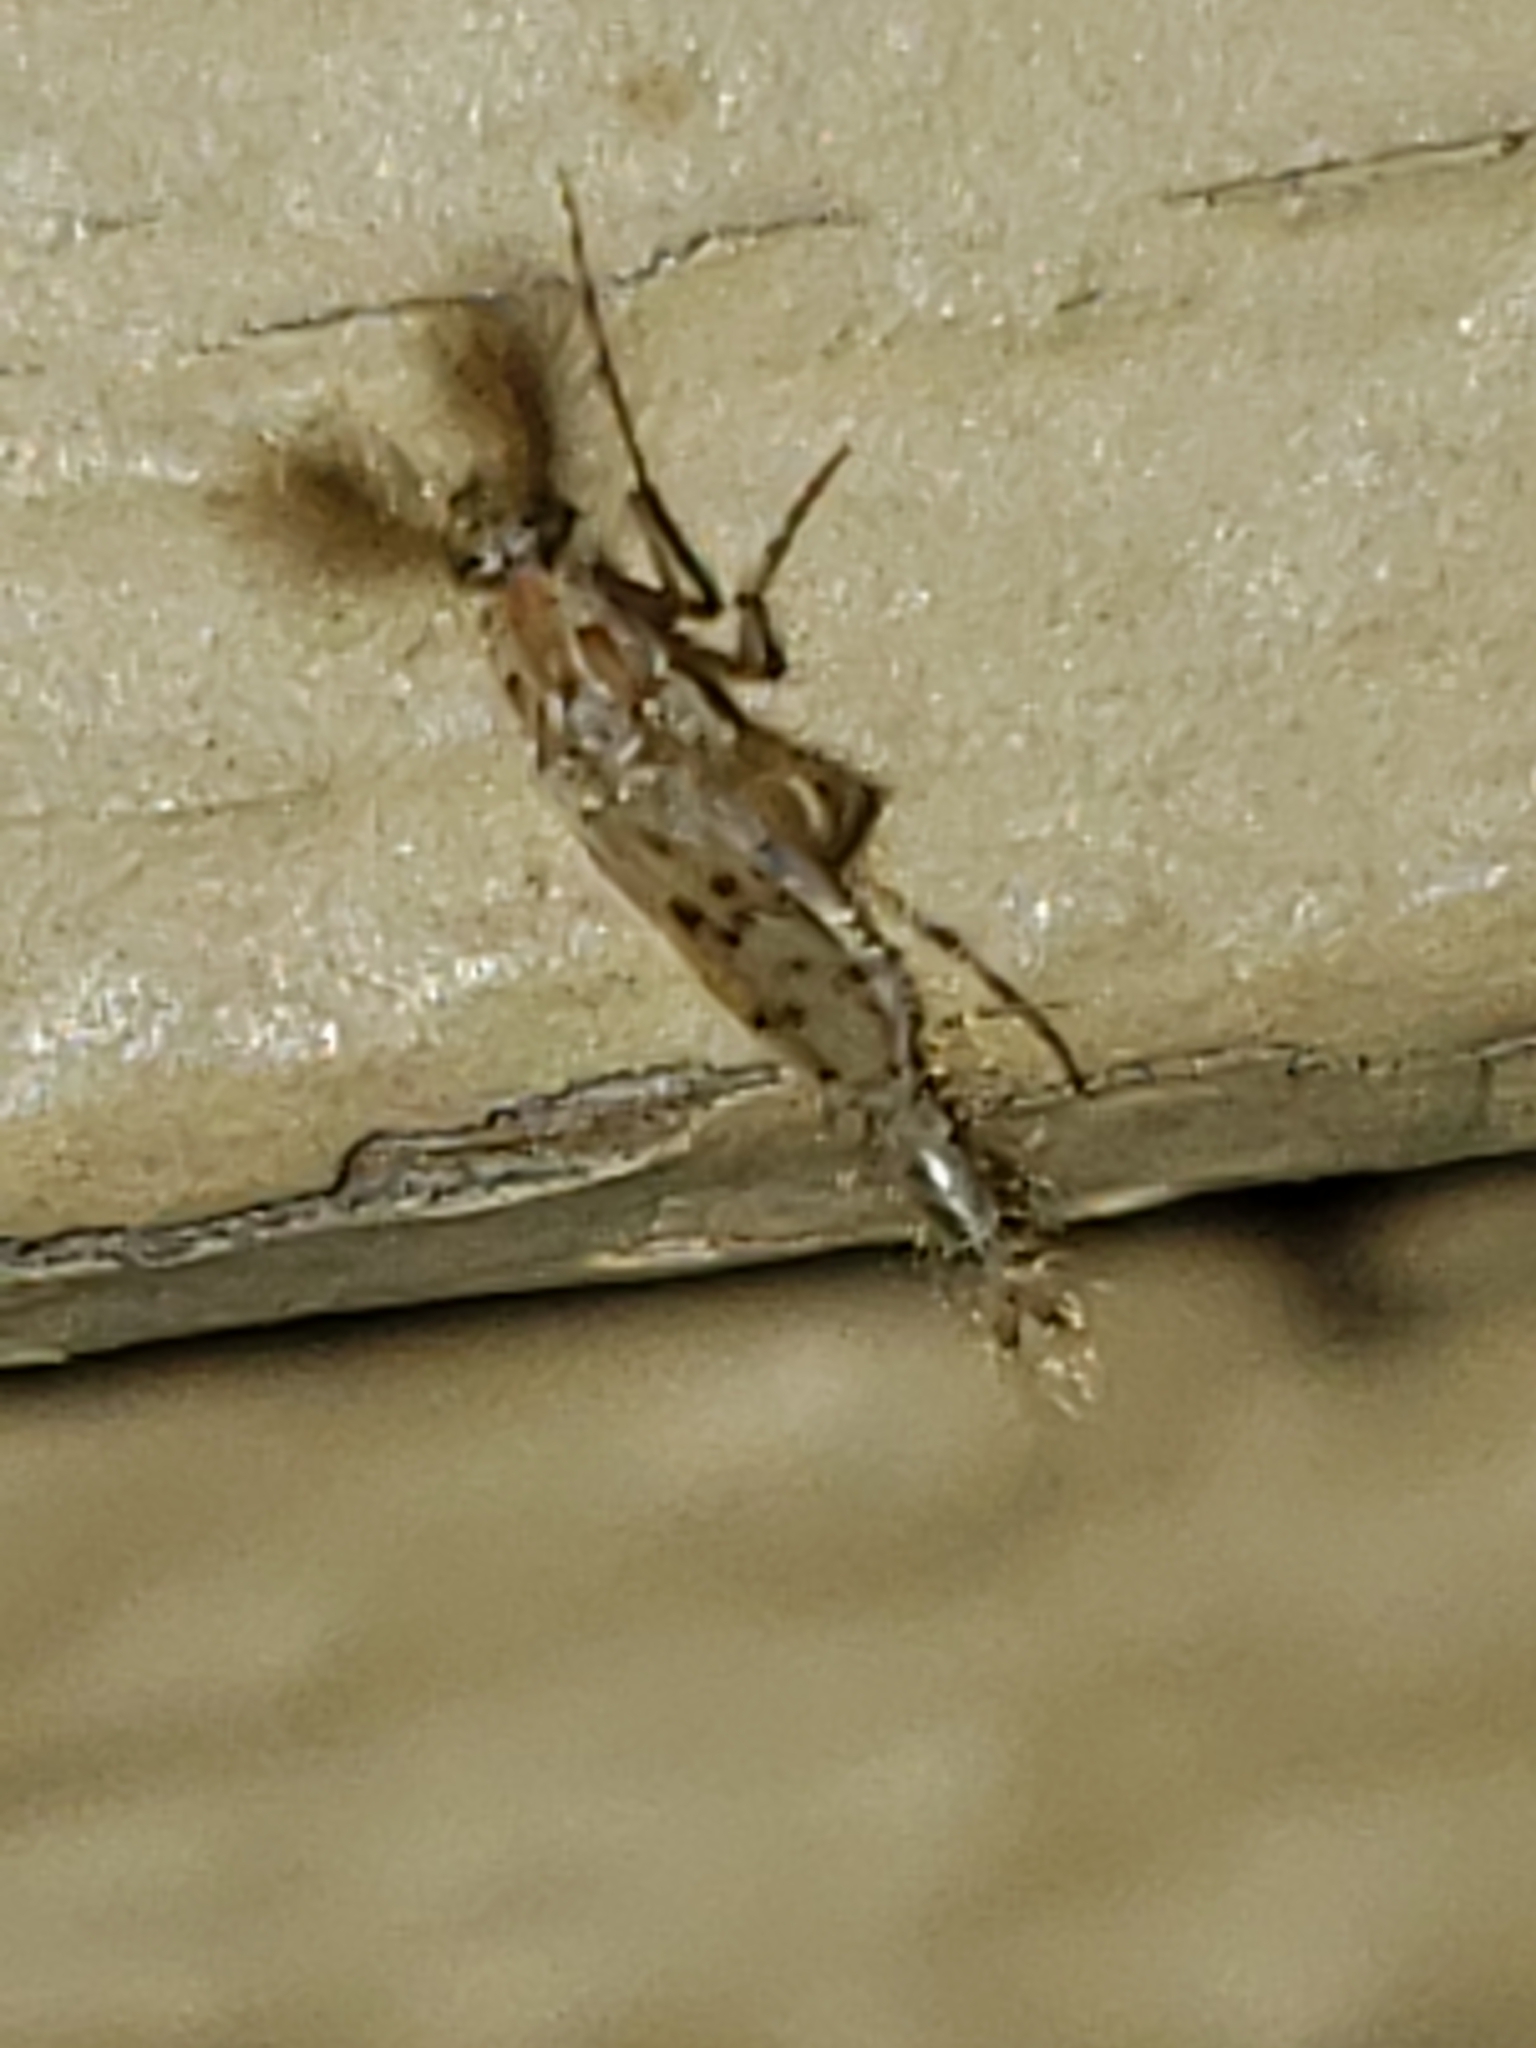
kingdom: Animalia
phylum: Arthropoda
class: Insecta
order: Diptera
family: Chaoboridae
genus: Chaoborus
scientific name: Chaoborus punctipennis
